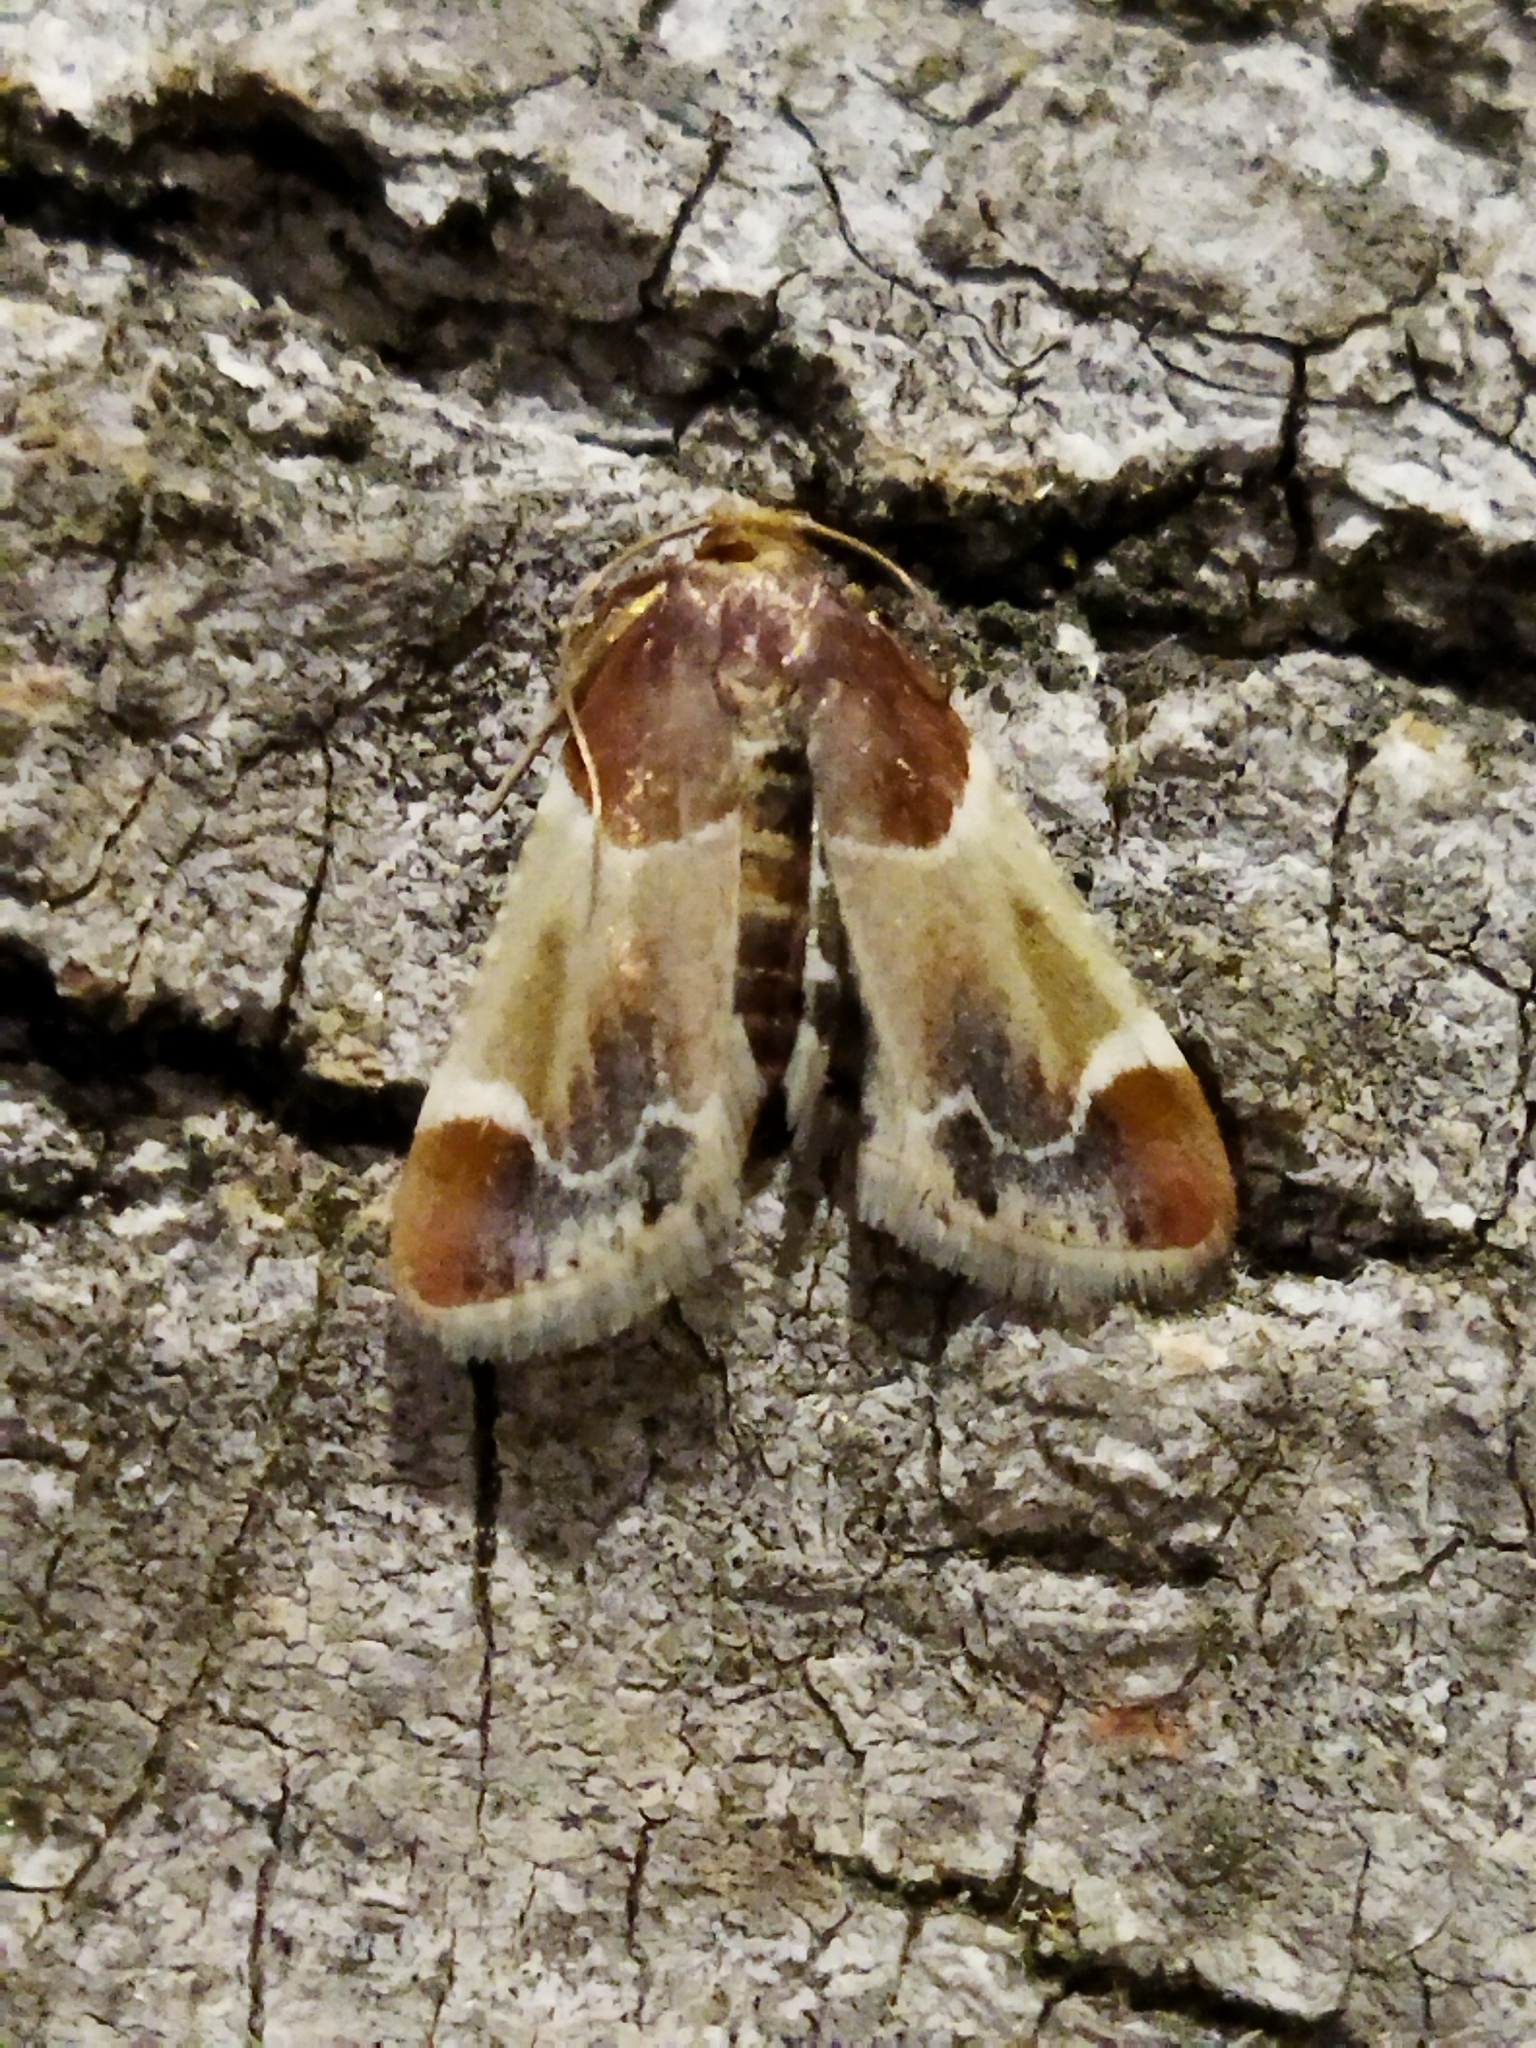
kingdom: Animalia
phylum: Arthropoda
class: Insecta
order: Lepidoptera
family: Pyralidae
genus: Pyralis
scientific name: Pyralis farinalis
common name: Meal moth
